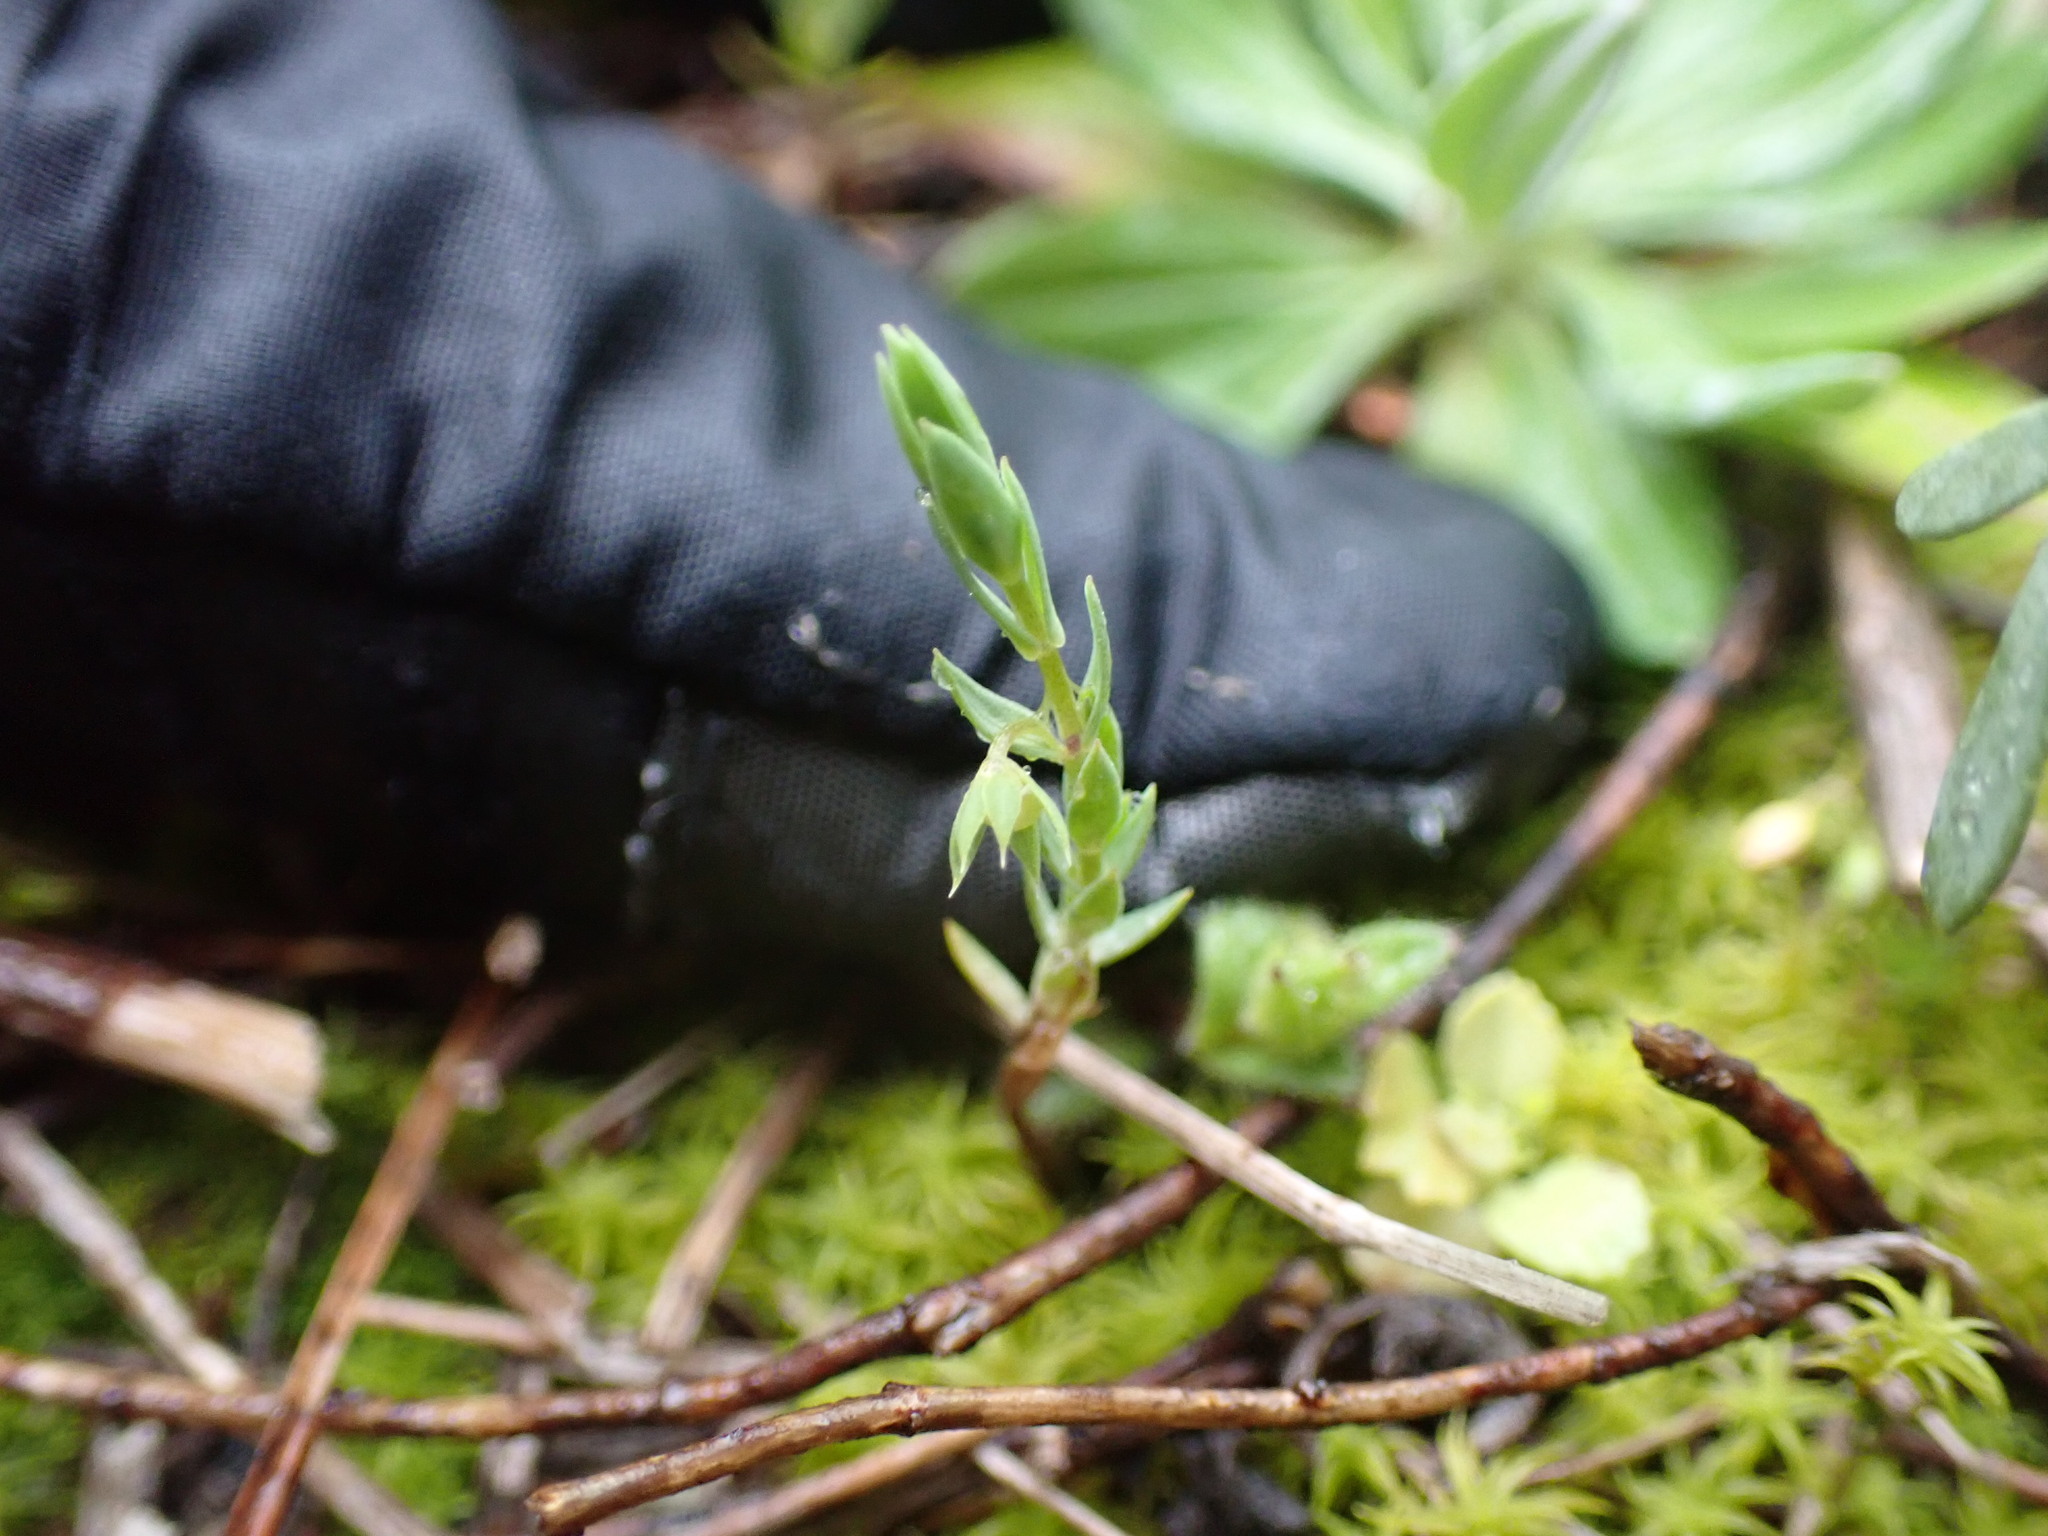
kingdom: Plantae
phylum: Tracheophyta
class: Magnoliopsida
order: Ericales
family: Primulaceae
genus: Lysimachia
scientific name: Lysimachia linum-stellatum
